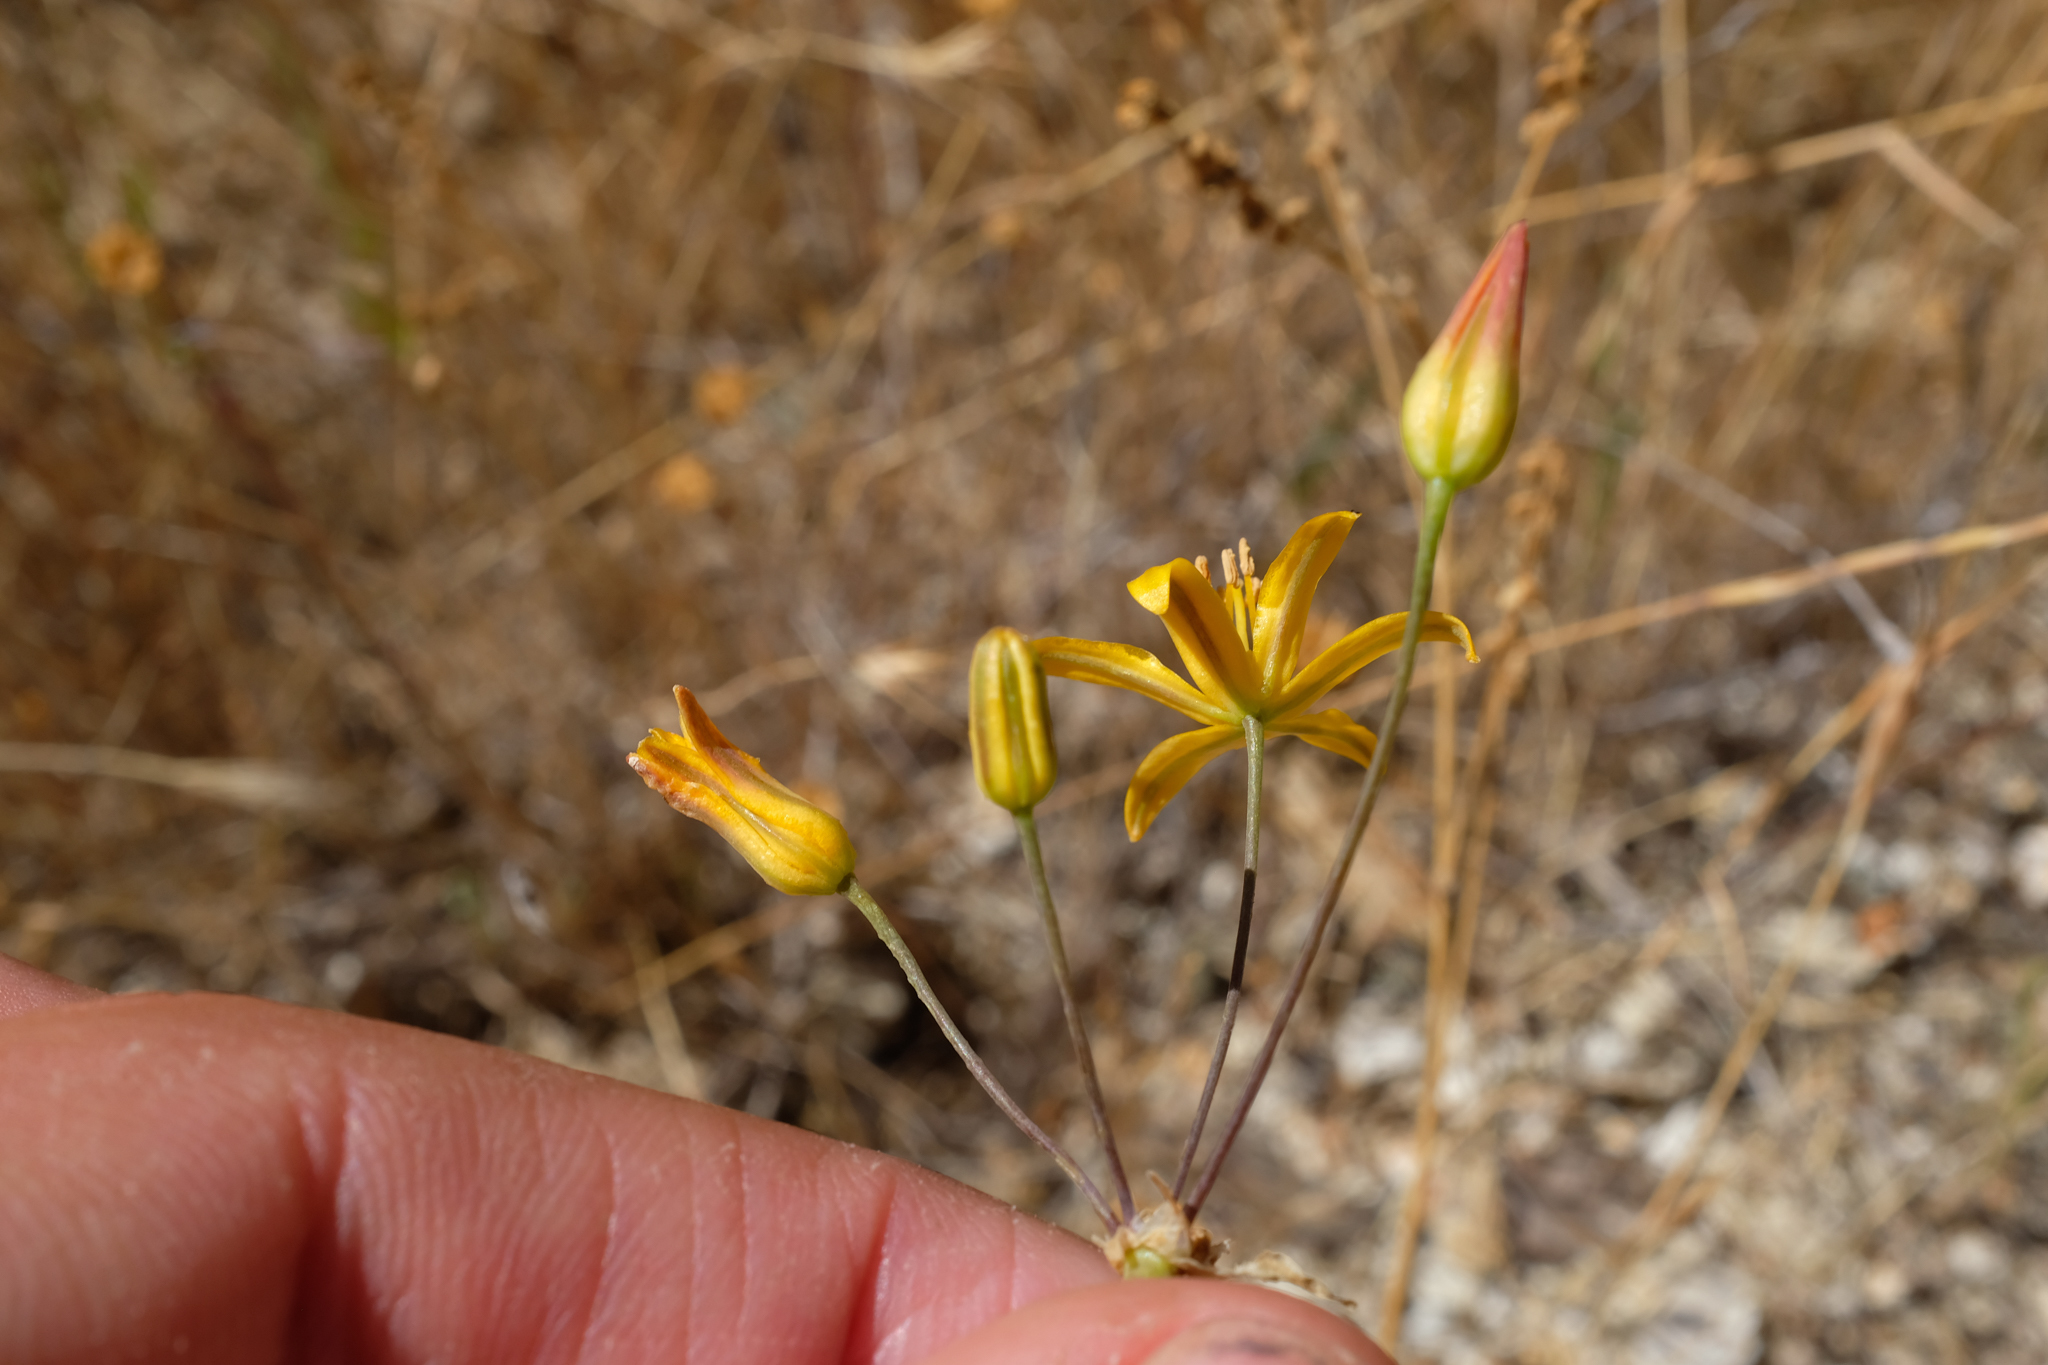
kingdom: Plantae
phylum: Tracheophyta
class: Liliopsida
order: Asparagales
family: Asparagaceae
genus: Bloomeria
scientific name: Bloomeria crocea
